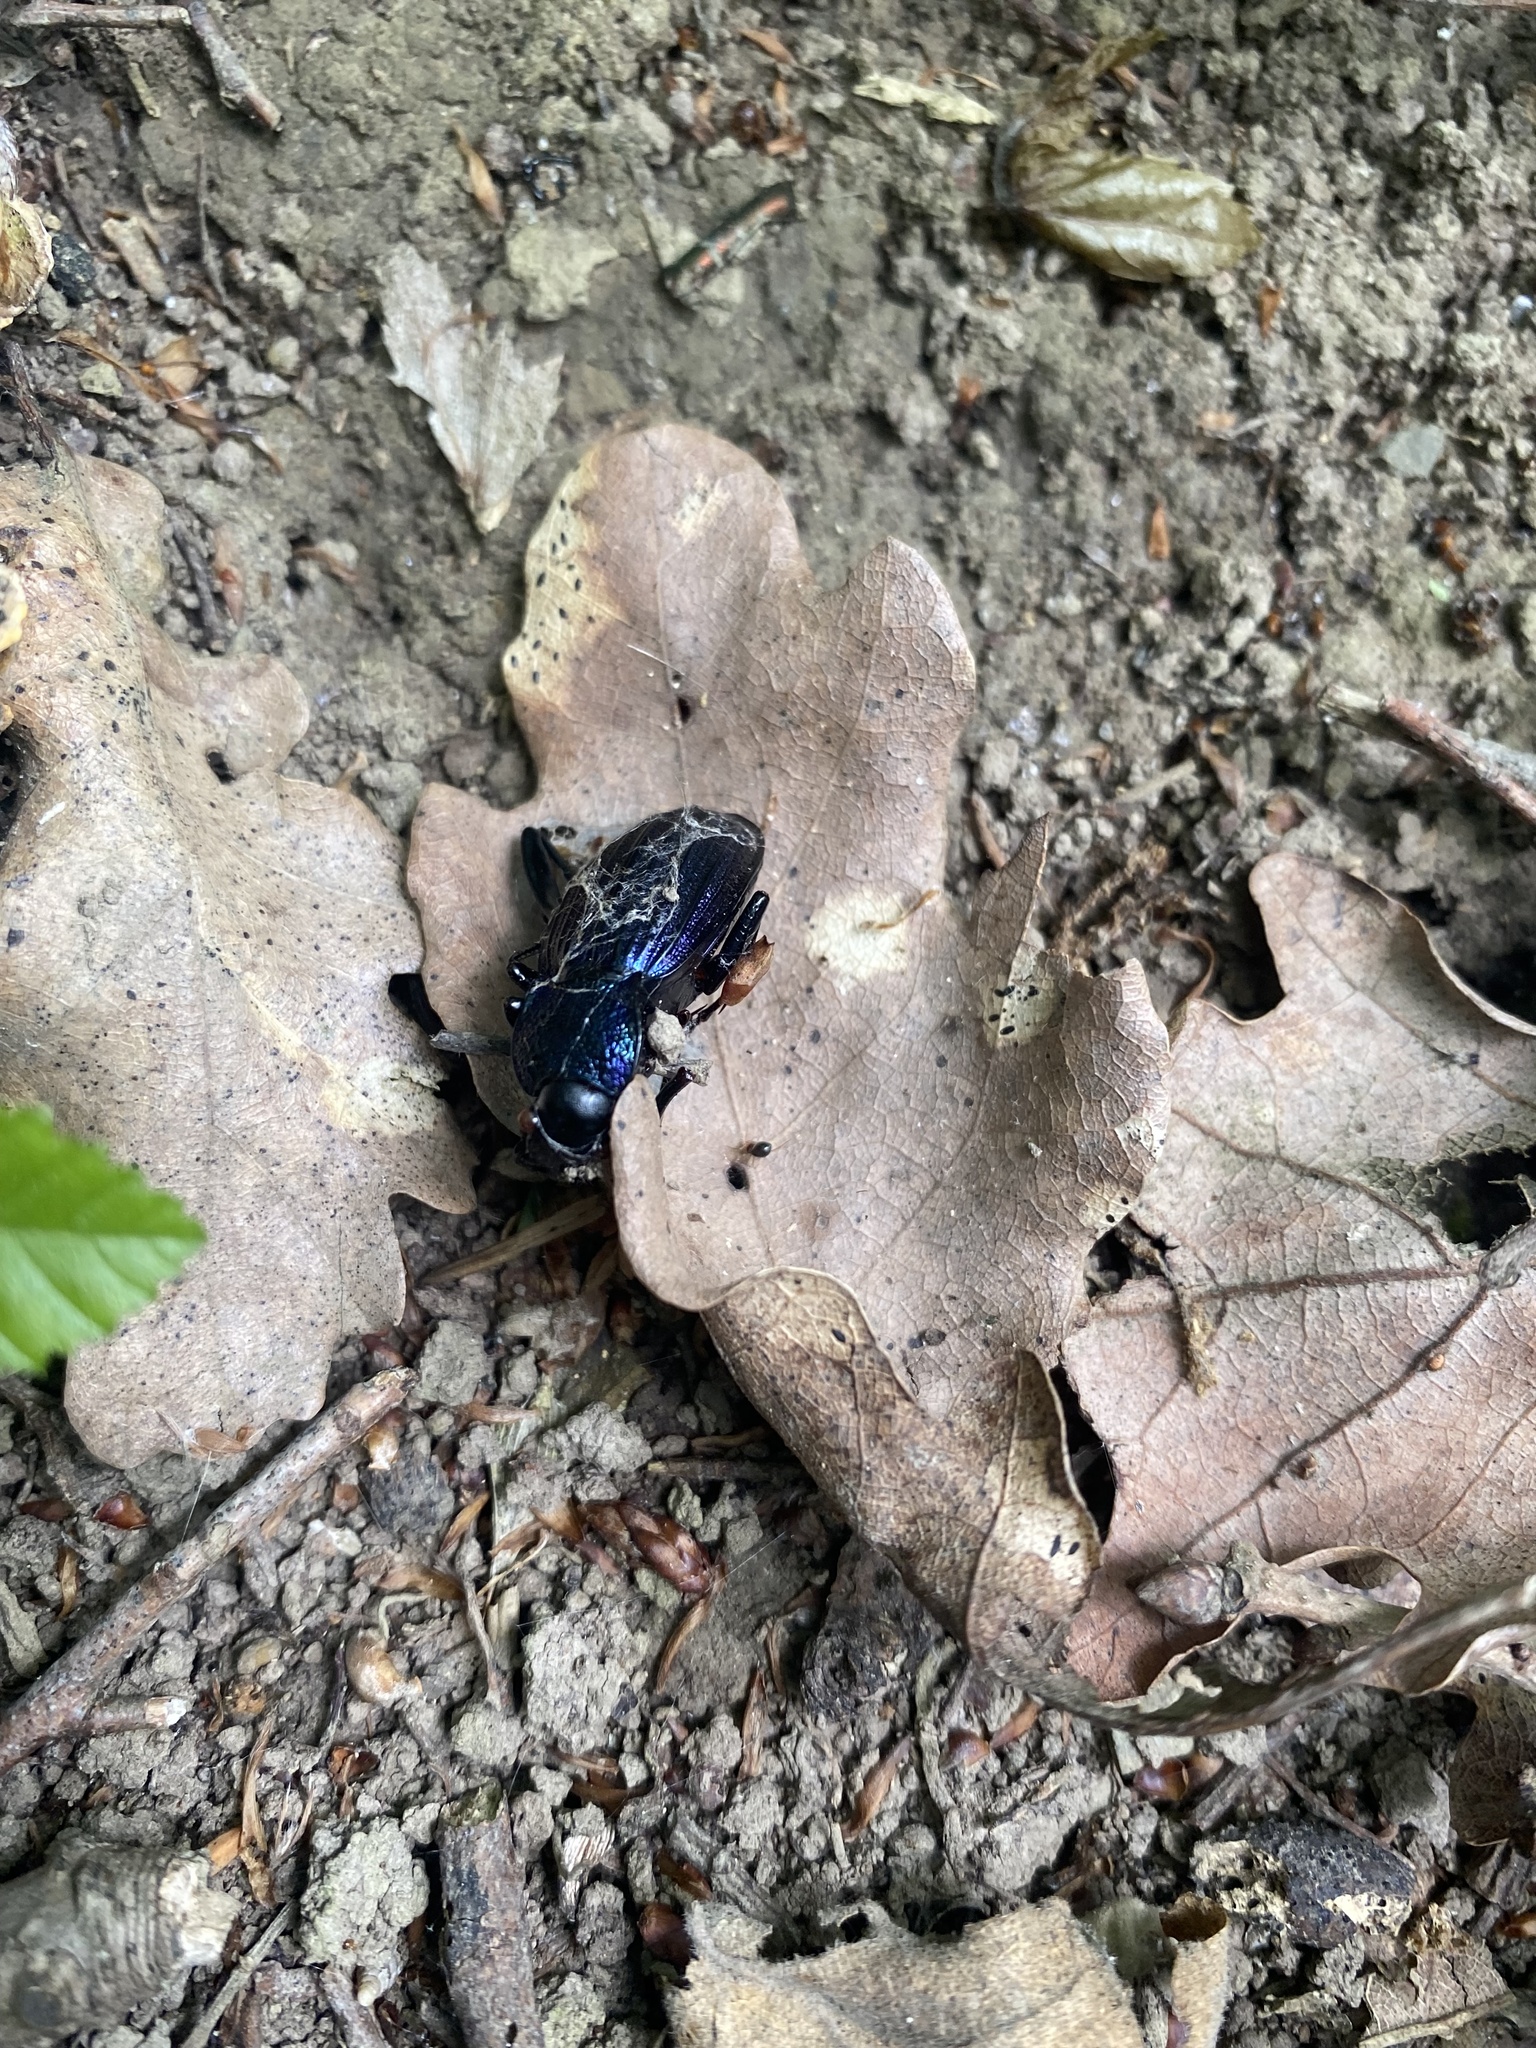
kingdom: Animalia
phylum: Arthropoda
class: Insecta
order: Coleoptera
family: Carabidae
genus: Carabus
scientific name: Carabus exaratus
